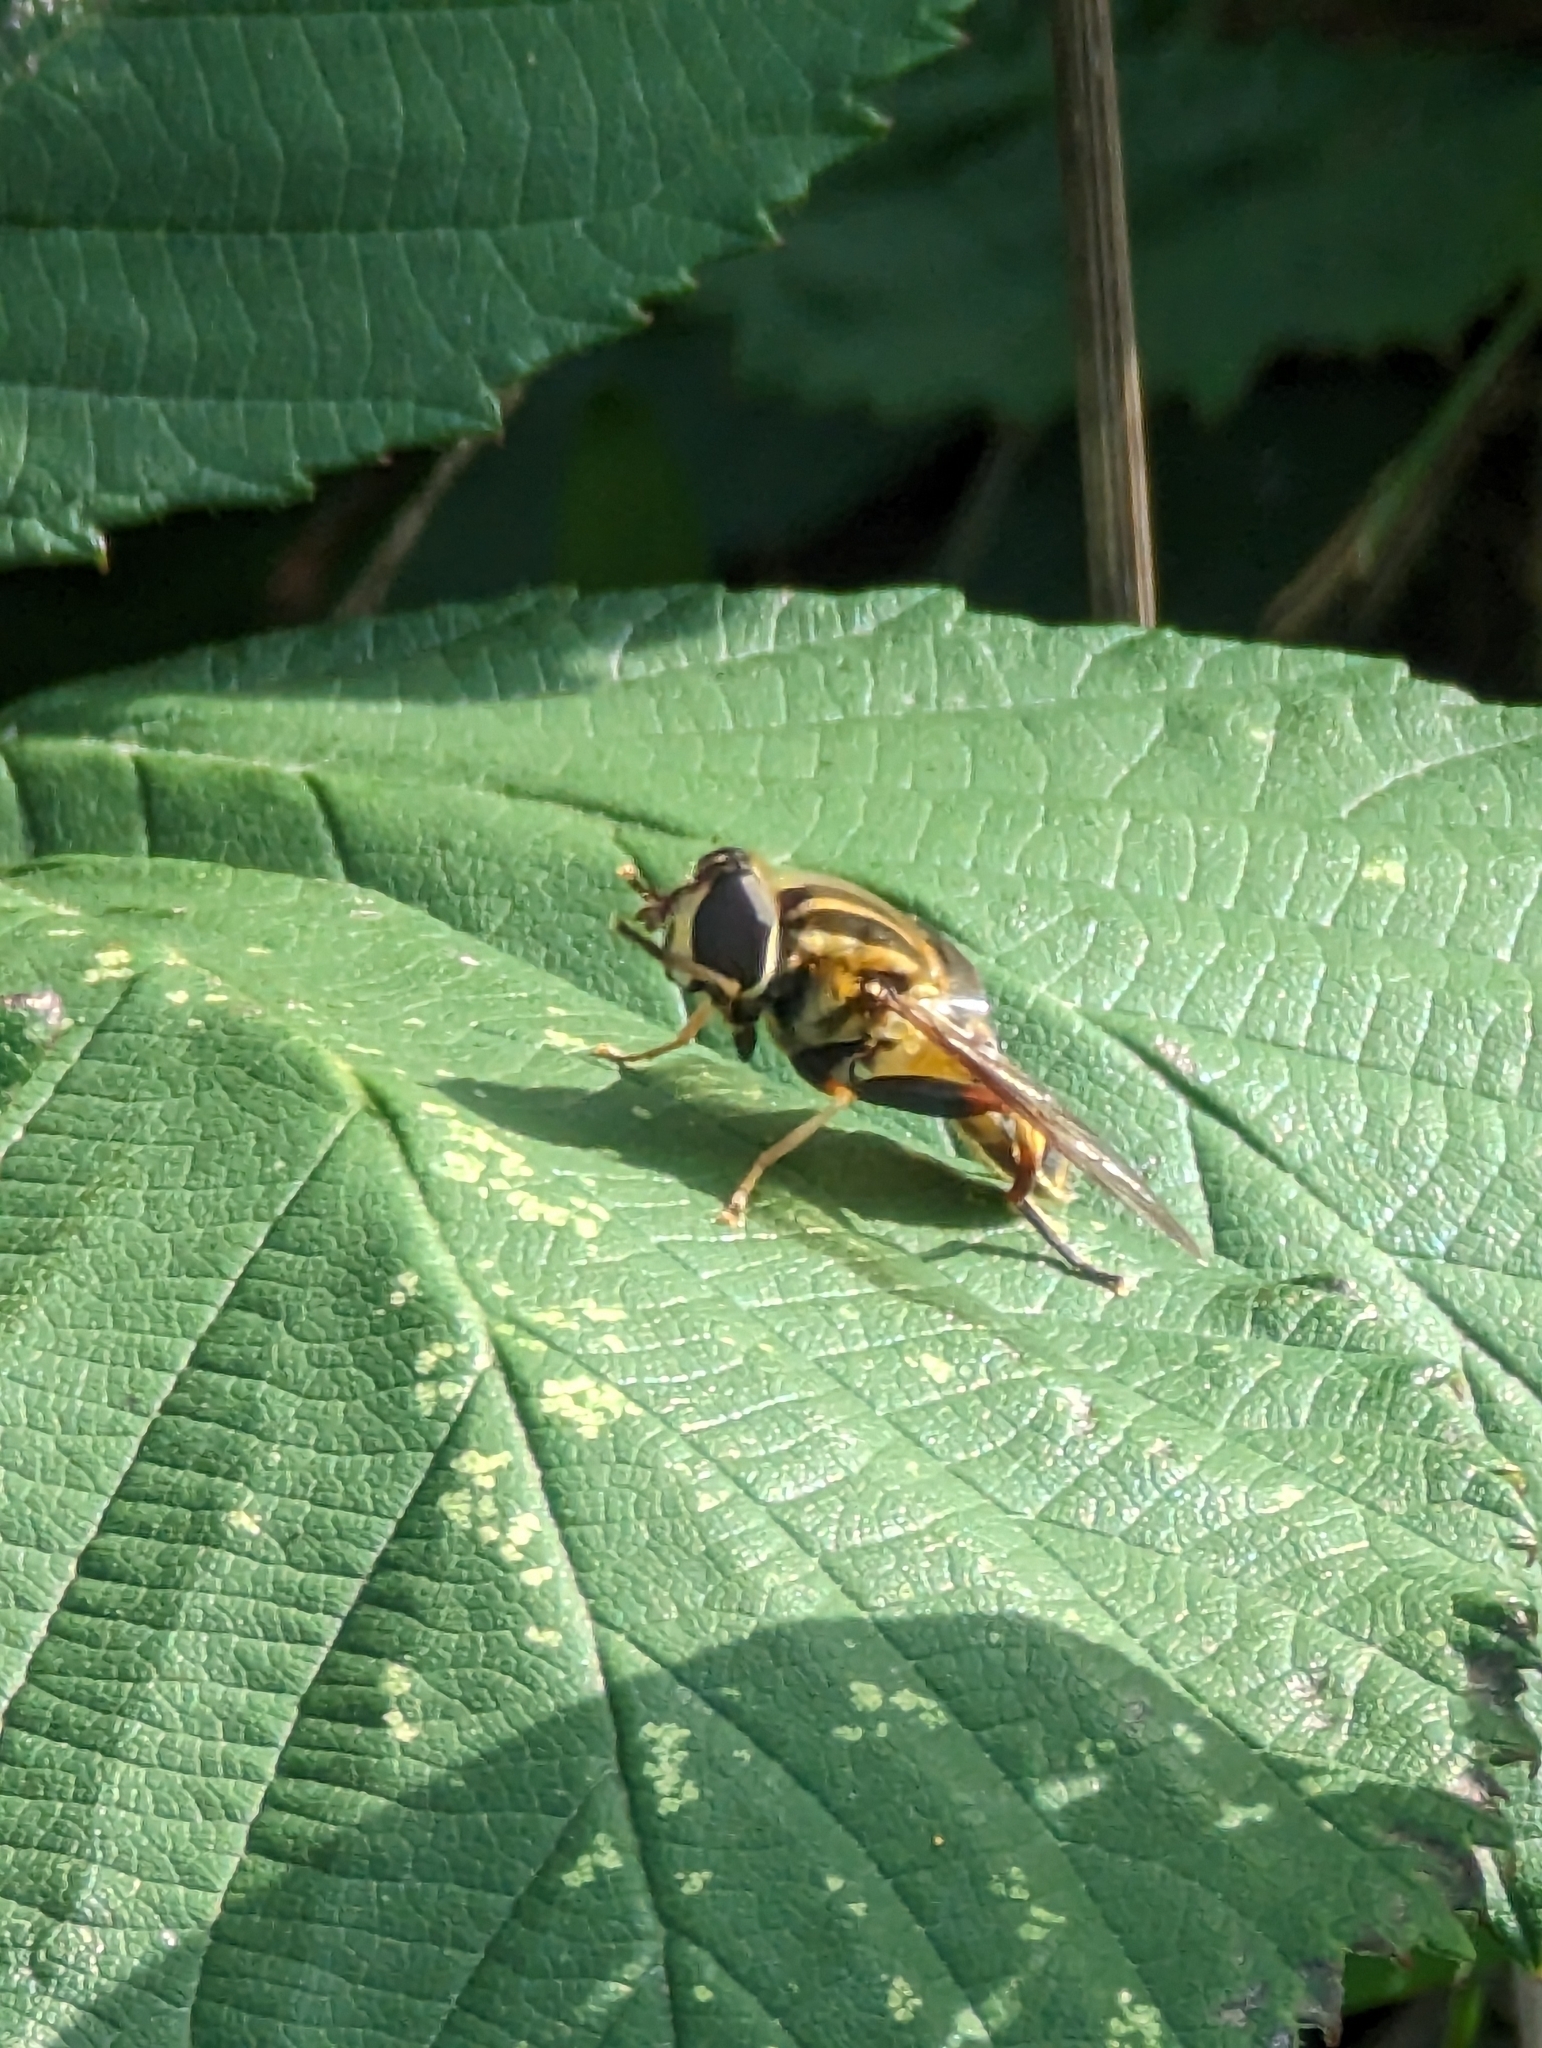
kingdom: Animalia
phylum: Arthropoda
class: Insecta
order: Diptera
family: Syrphidae
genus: Helophilus
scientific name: Helophilus fasciatus
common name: Narrow-headed marsh fly
